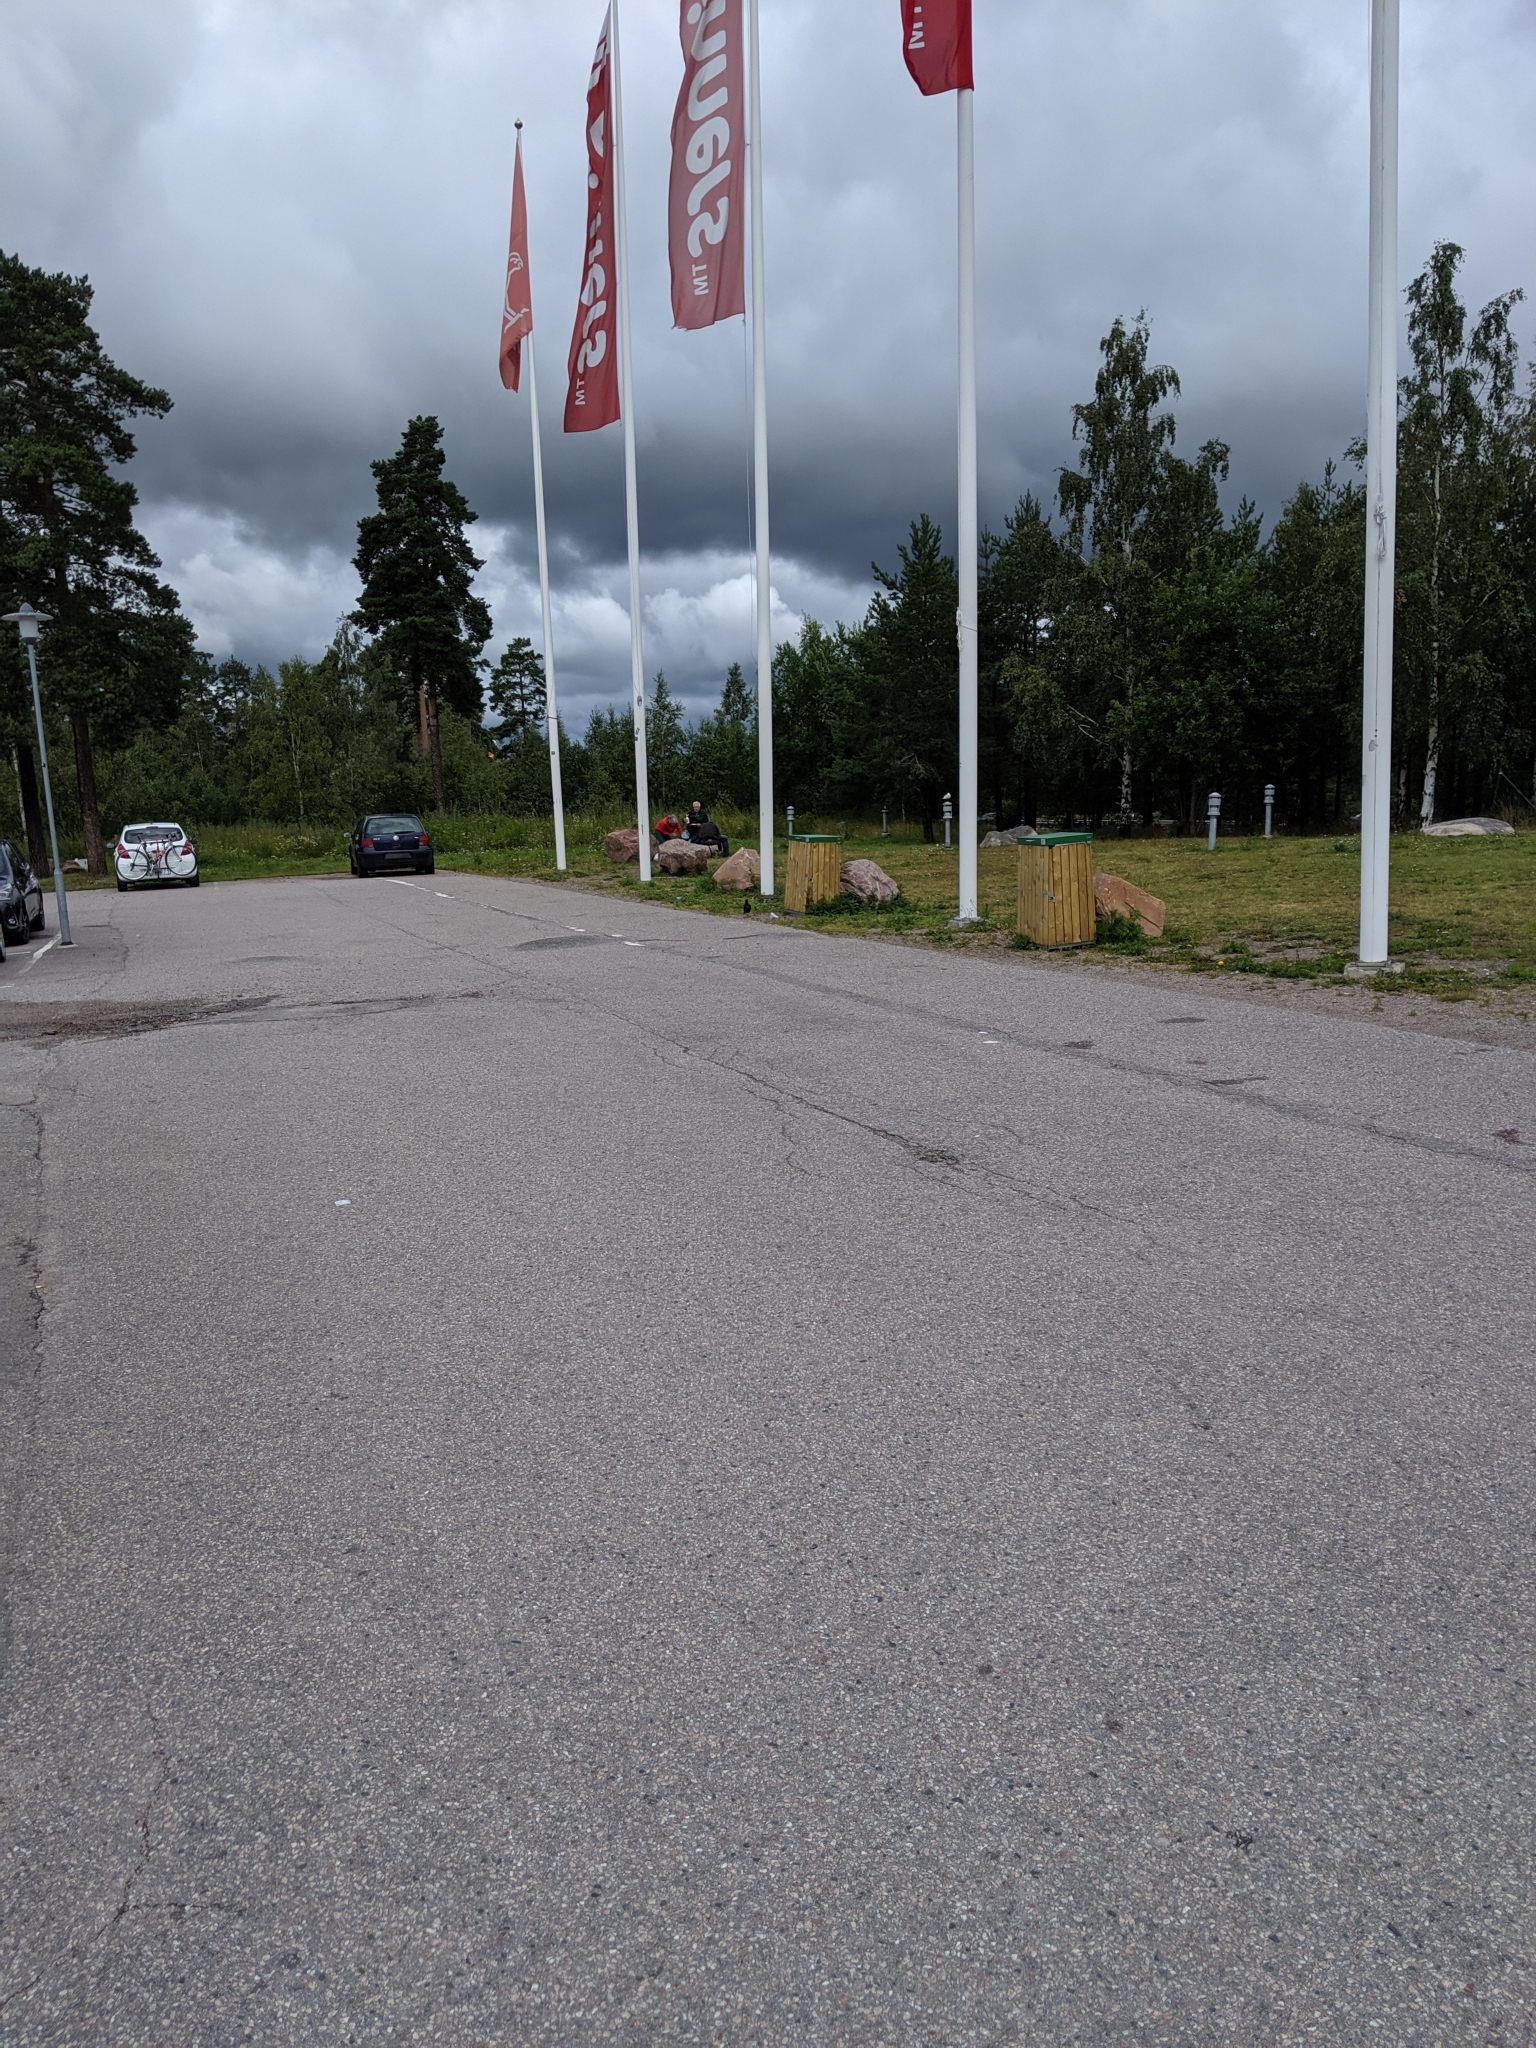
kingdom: Animalia
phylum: Chordata
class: Aves
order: Passeriformes
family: Corvidae
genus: Coloeus
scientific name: Coloeus monedula
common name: Western jackdaw
